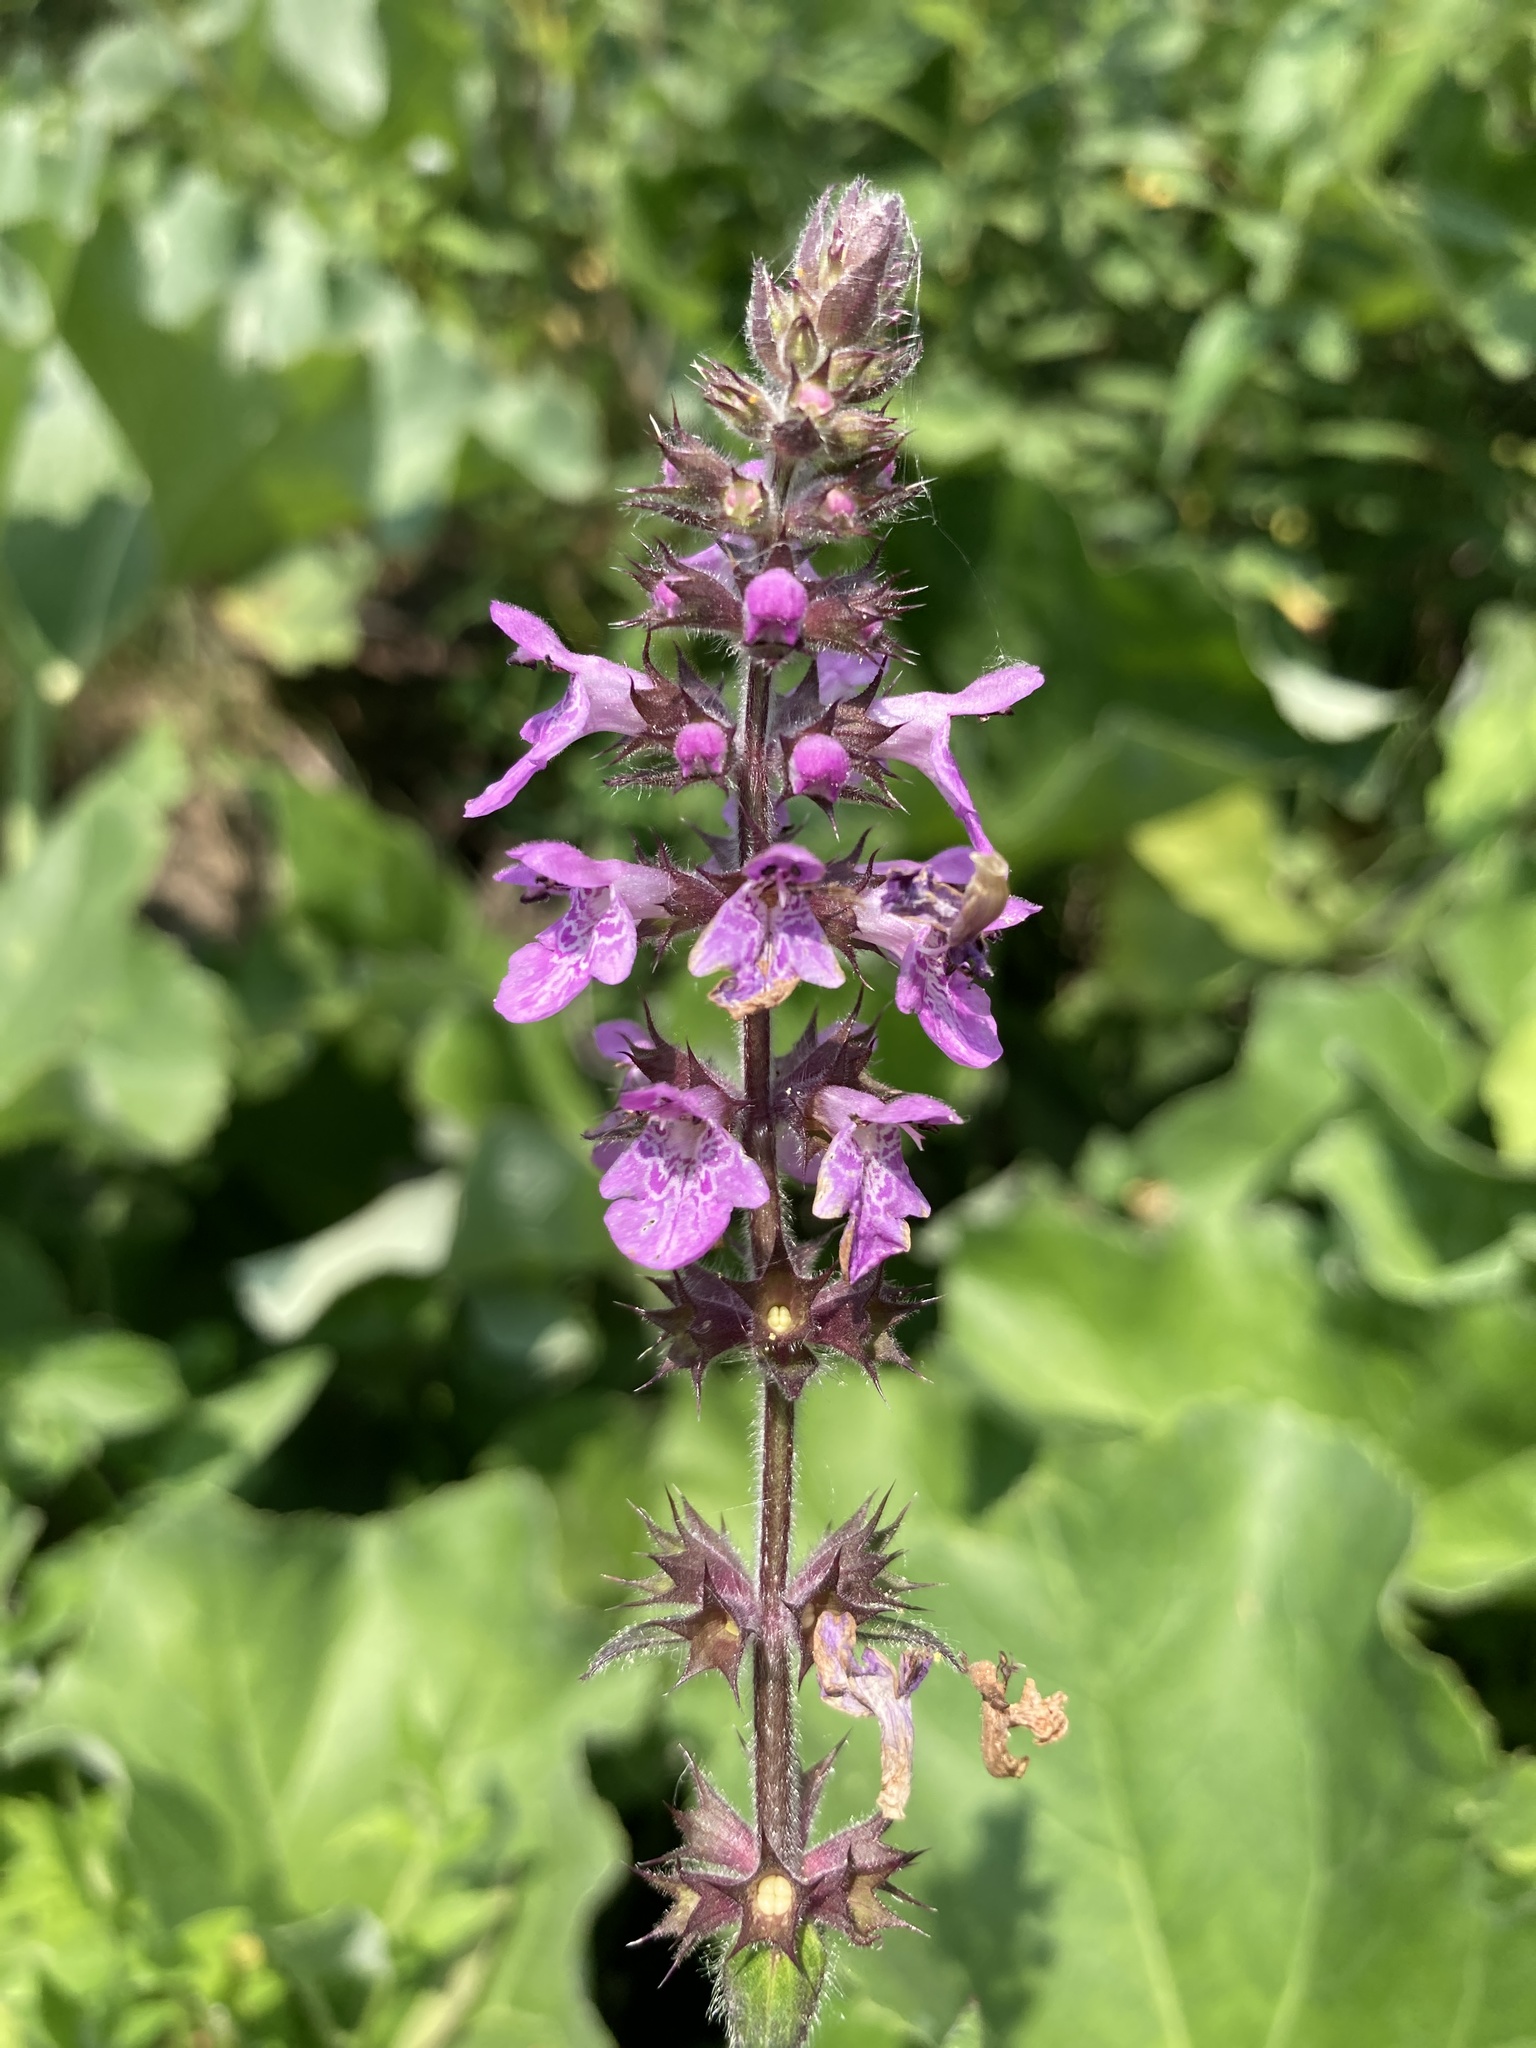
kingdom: Plantae
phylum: Tracheophyta
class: Magnoliopsida
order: Lamiales
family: Lamiaceae
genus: Stachys
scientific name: Stachys palustris
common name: Marsh woundwort
